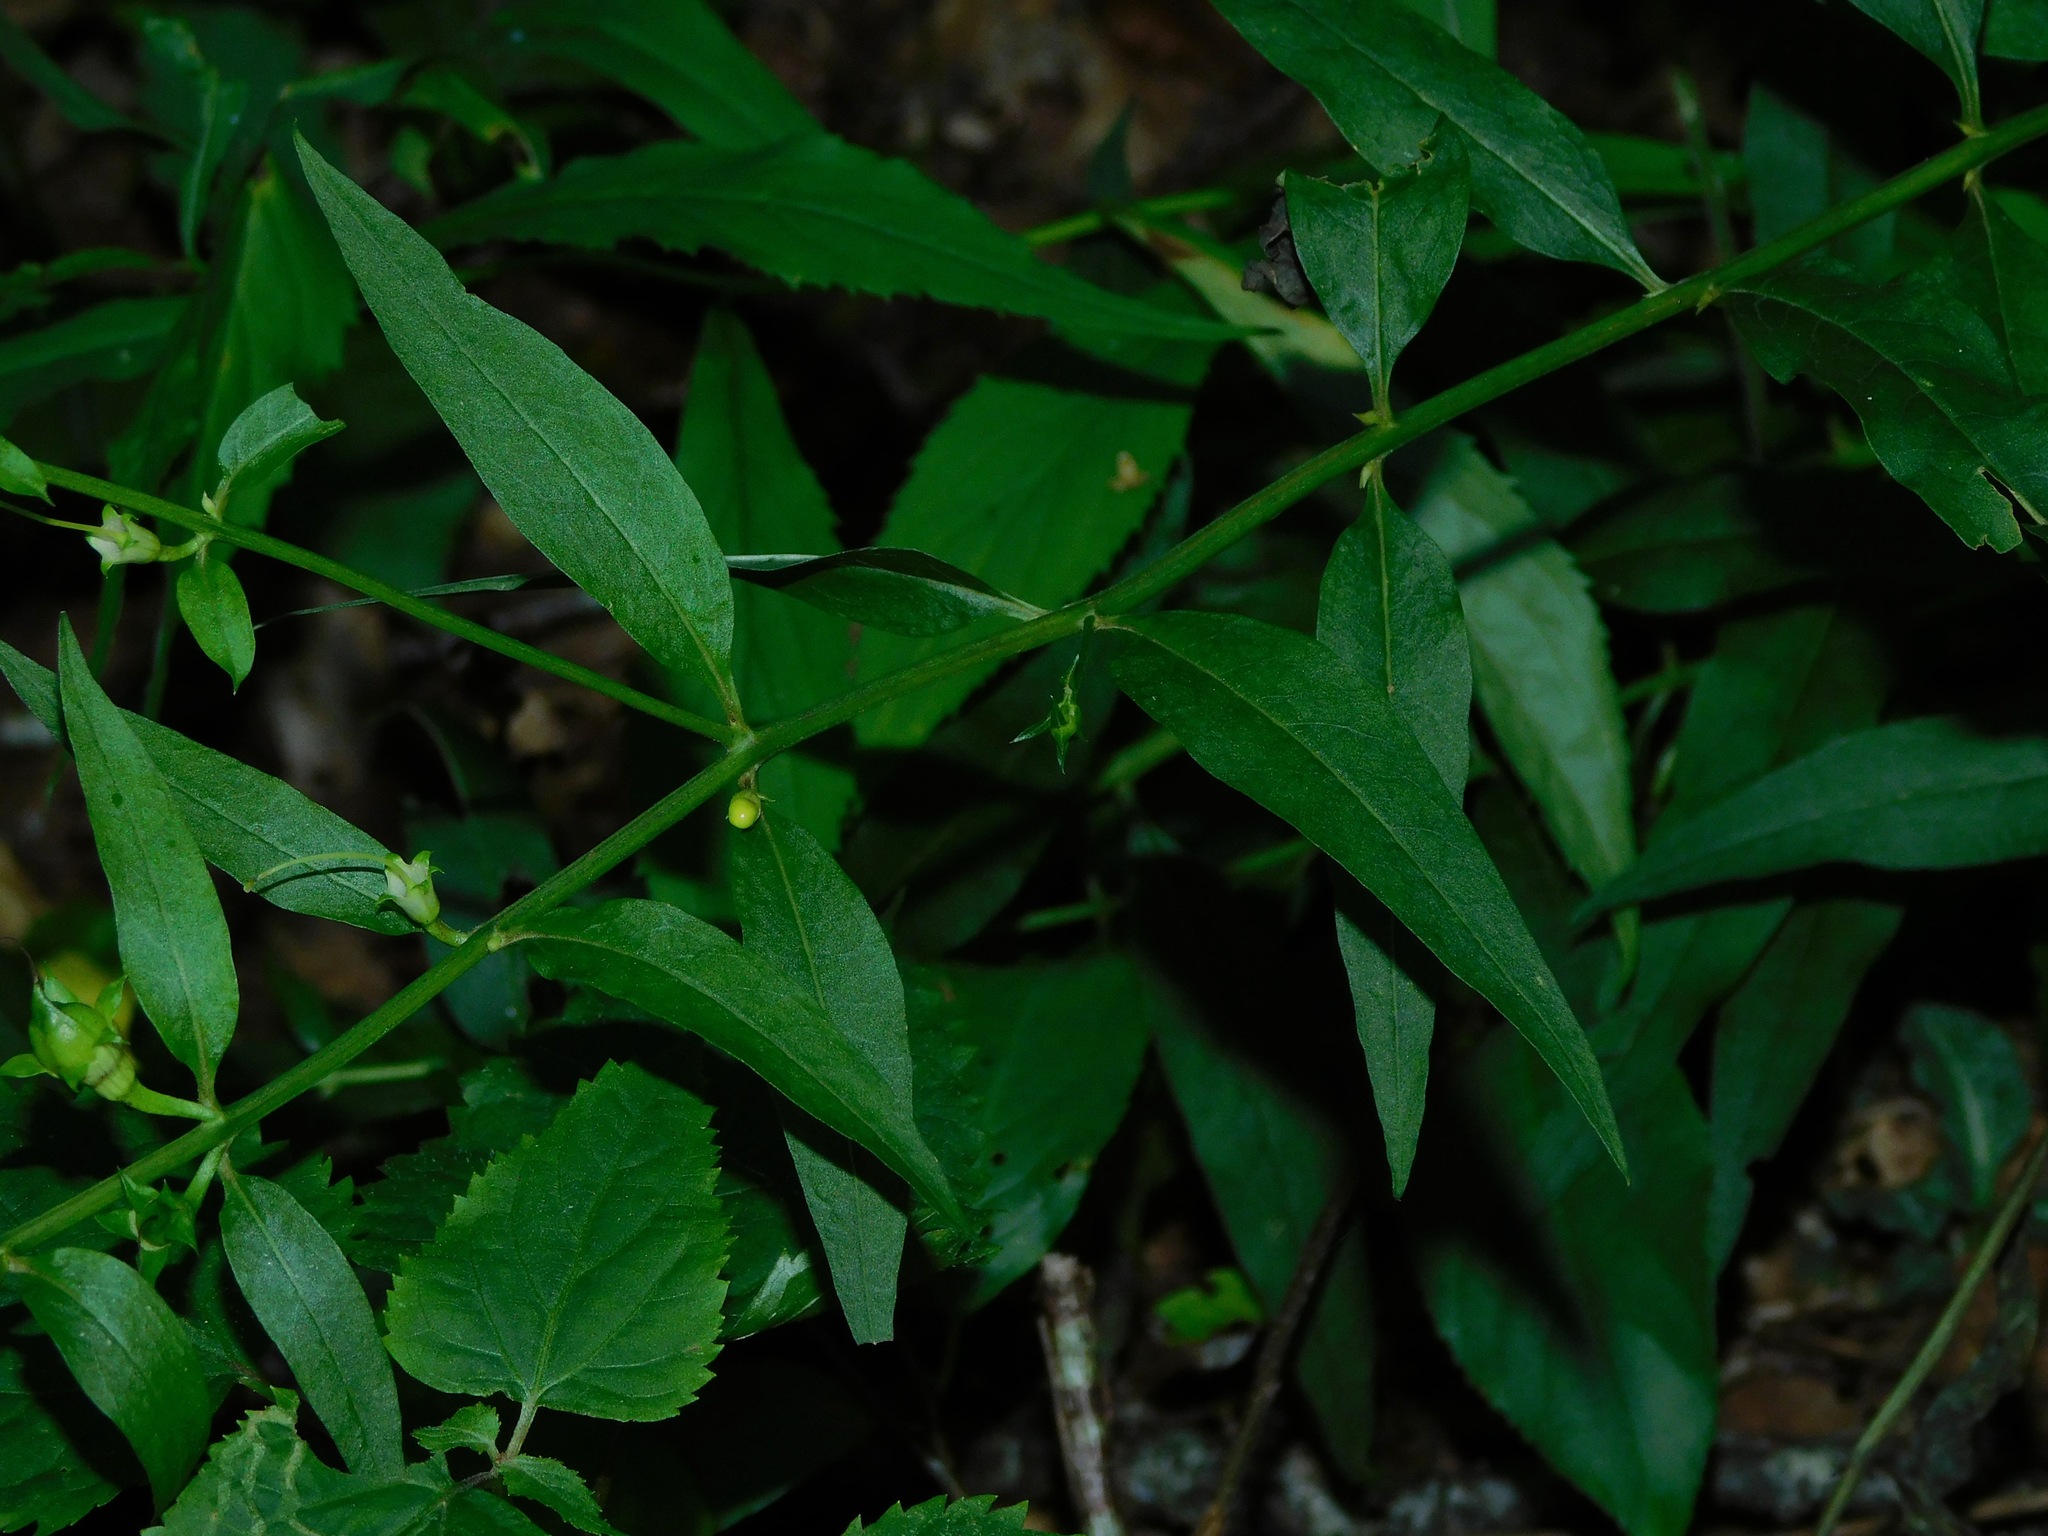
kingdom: Plantae
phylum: Tracheophyta
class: Magnoliopsida
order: Lamiales
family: Orobanchaceae
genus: Aureolaria
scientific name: Aureolaria levigata
